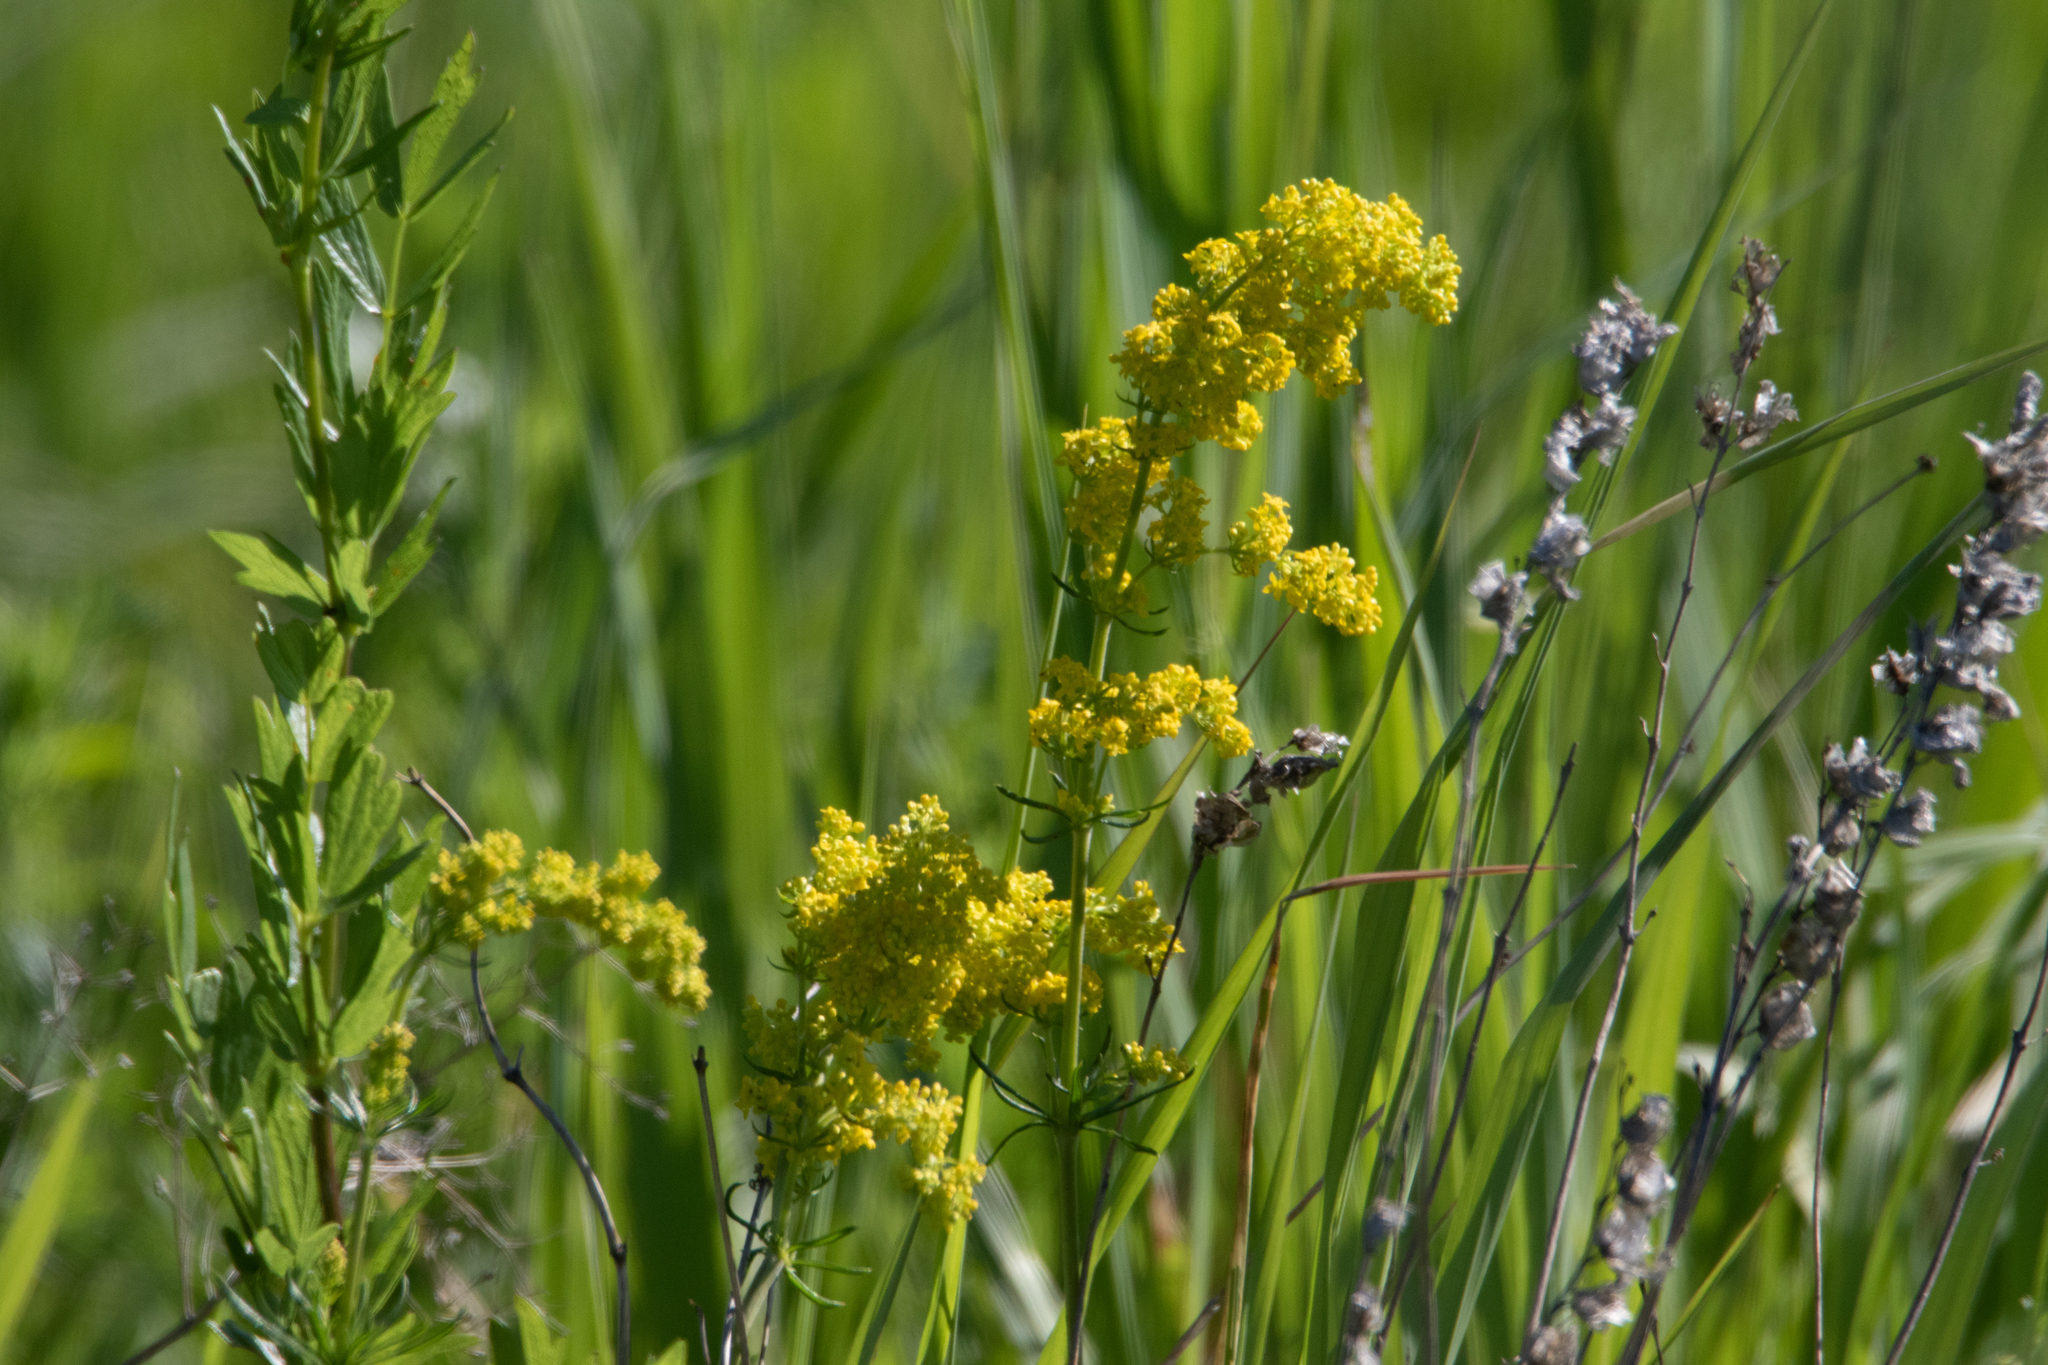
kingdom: Plantae
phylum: Tracheophyta
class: Magnoliopsida
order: Gentianales
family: Rubiaceae
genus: Galium
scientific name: Galium verum
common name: Lady's bedstraw
